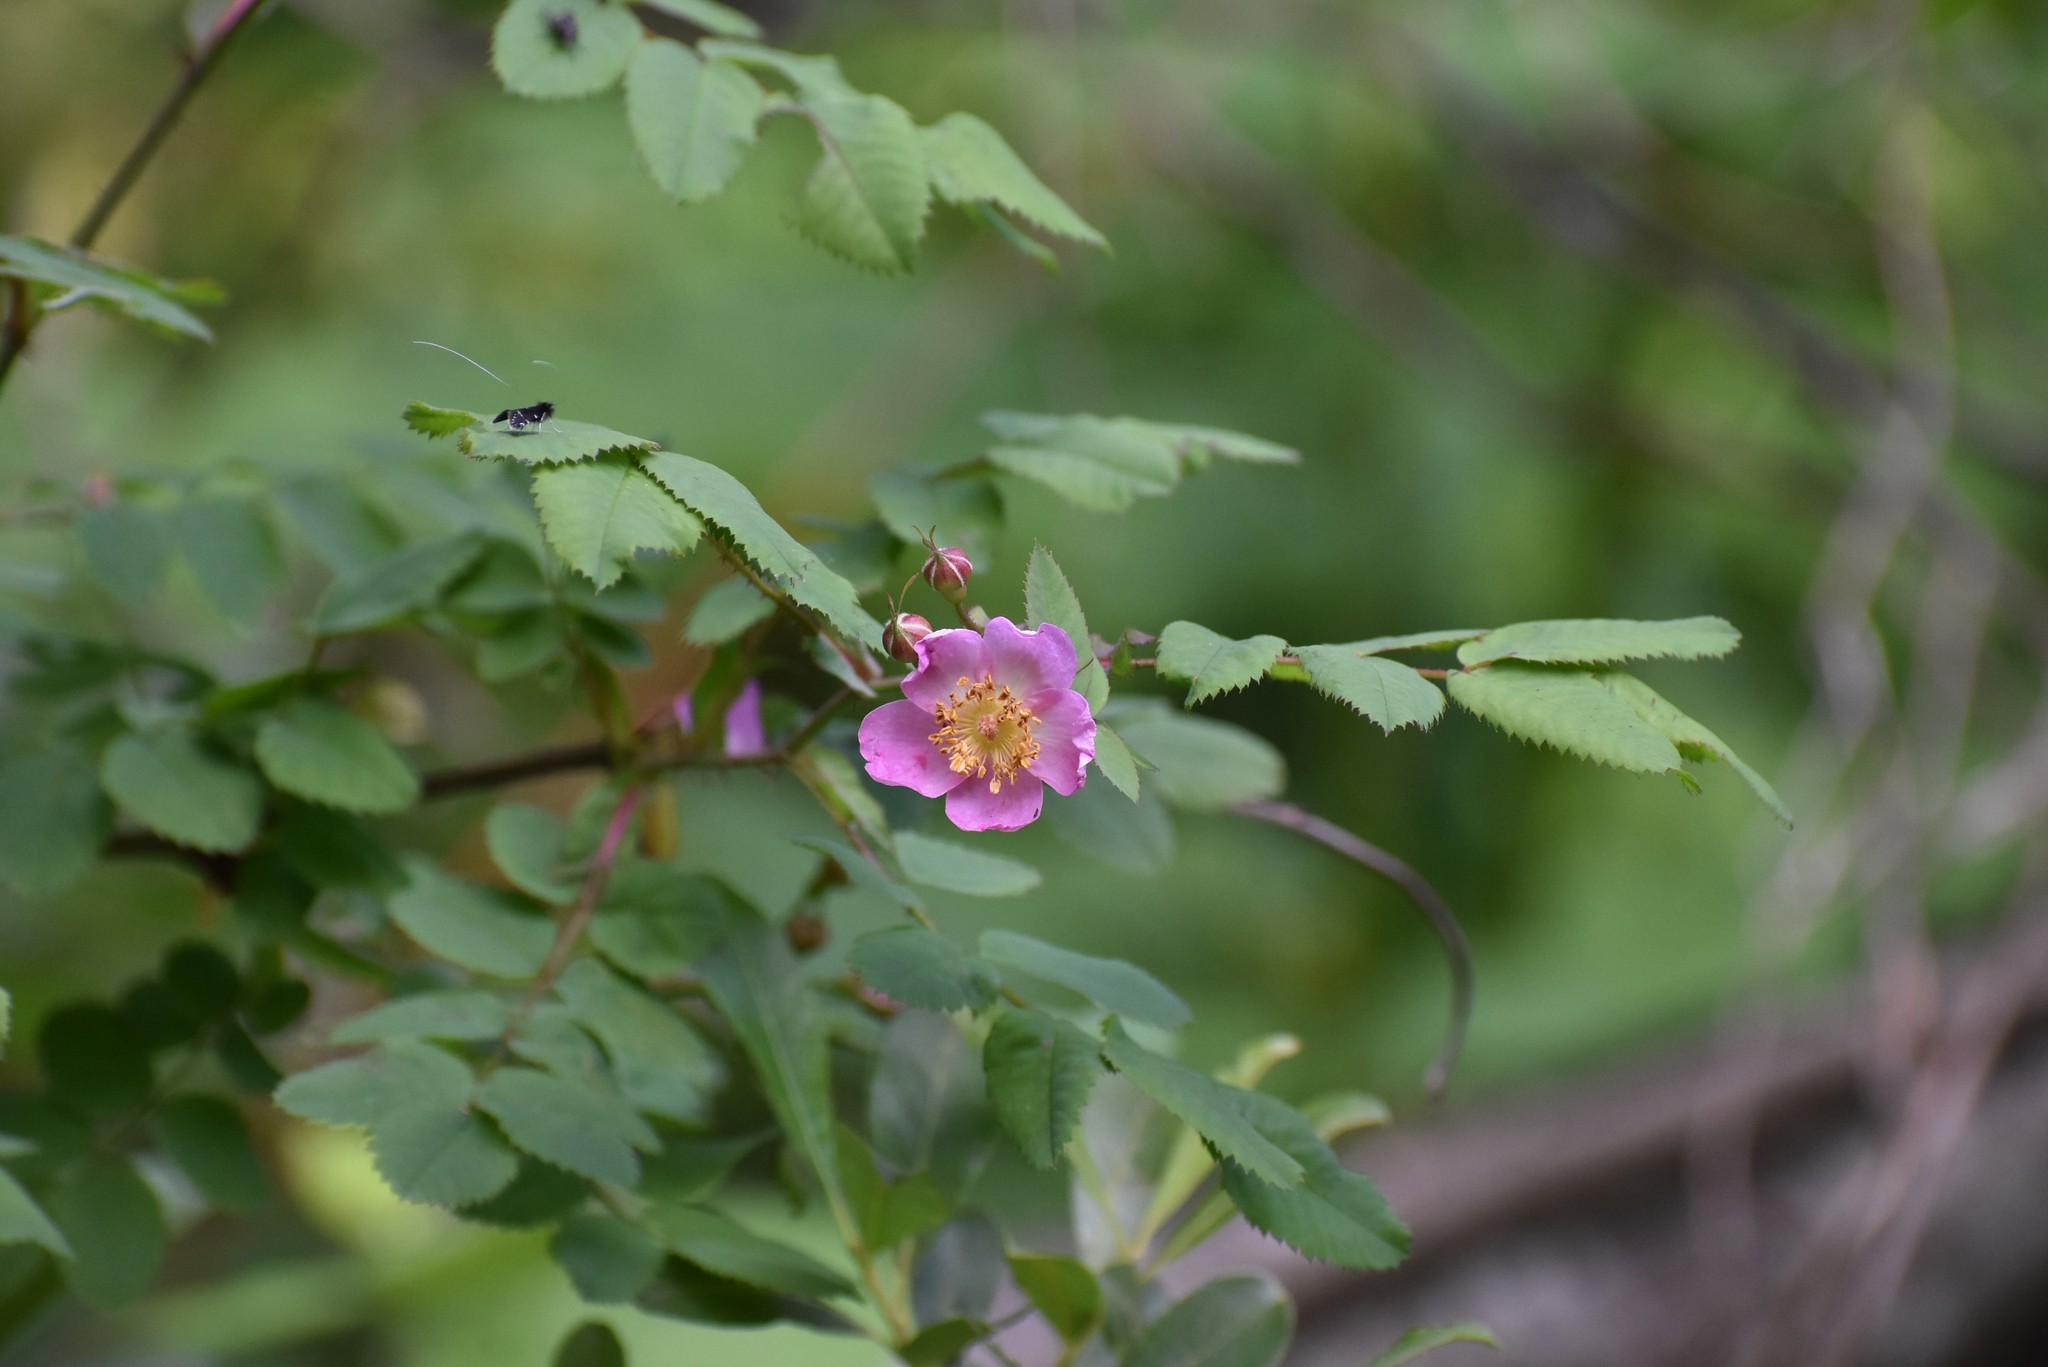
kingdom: Plantae
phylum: Tracheophyta
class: Magnoliopsida
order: Rosales
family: Rosaceae
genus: Rosa
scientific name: Rosa gymnocarpa
